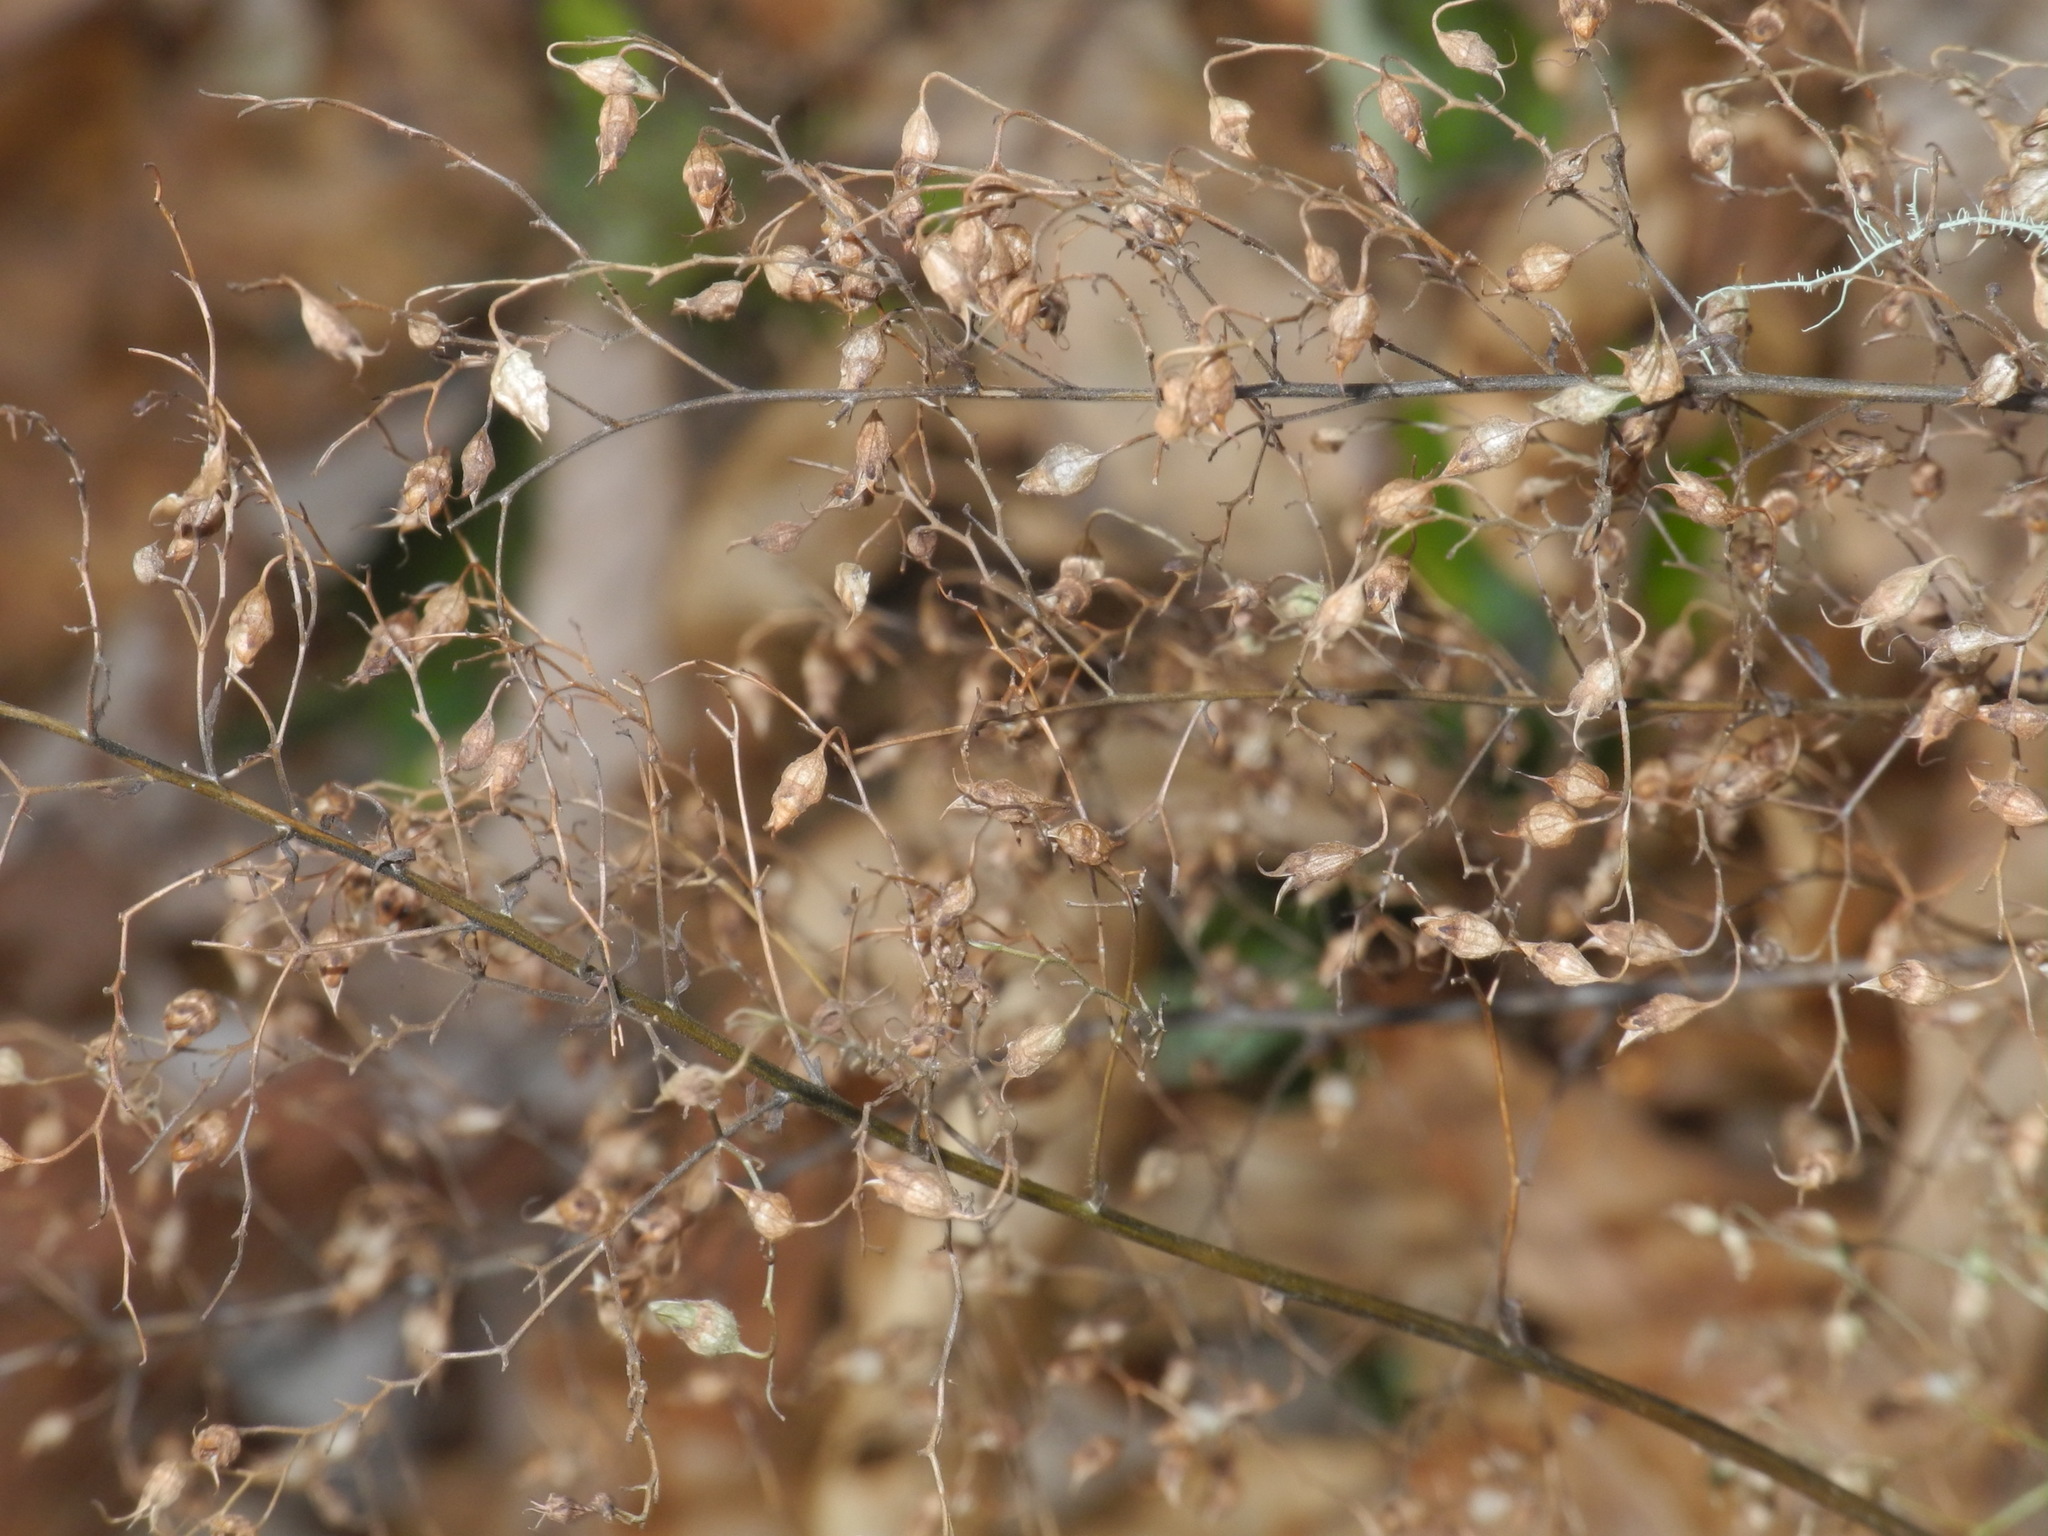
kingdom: Plantae
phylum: Tracheophyta
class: Magnoliopsida
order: Saxifragales
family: Saxifragaceae
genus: Heuchera
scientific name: Heuchera villosa
